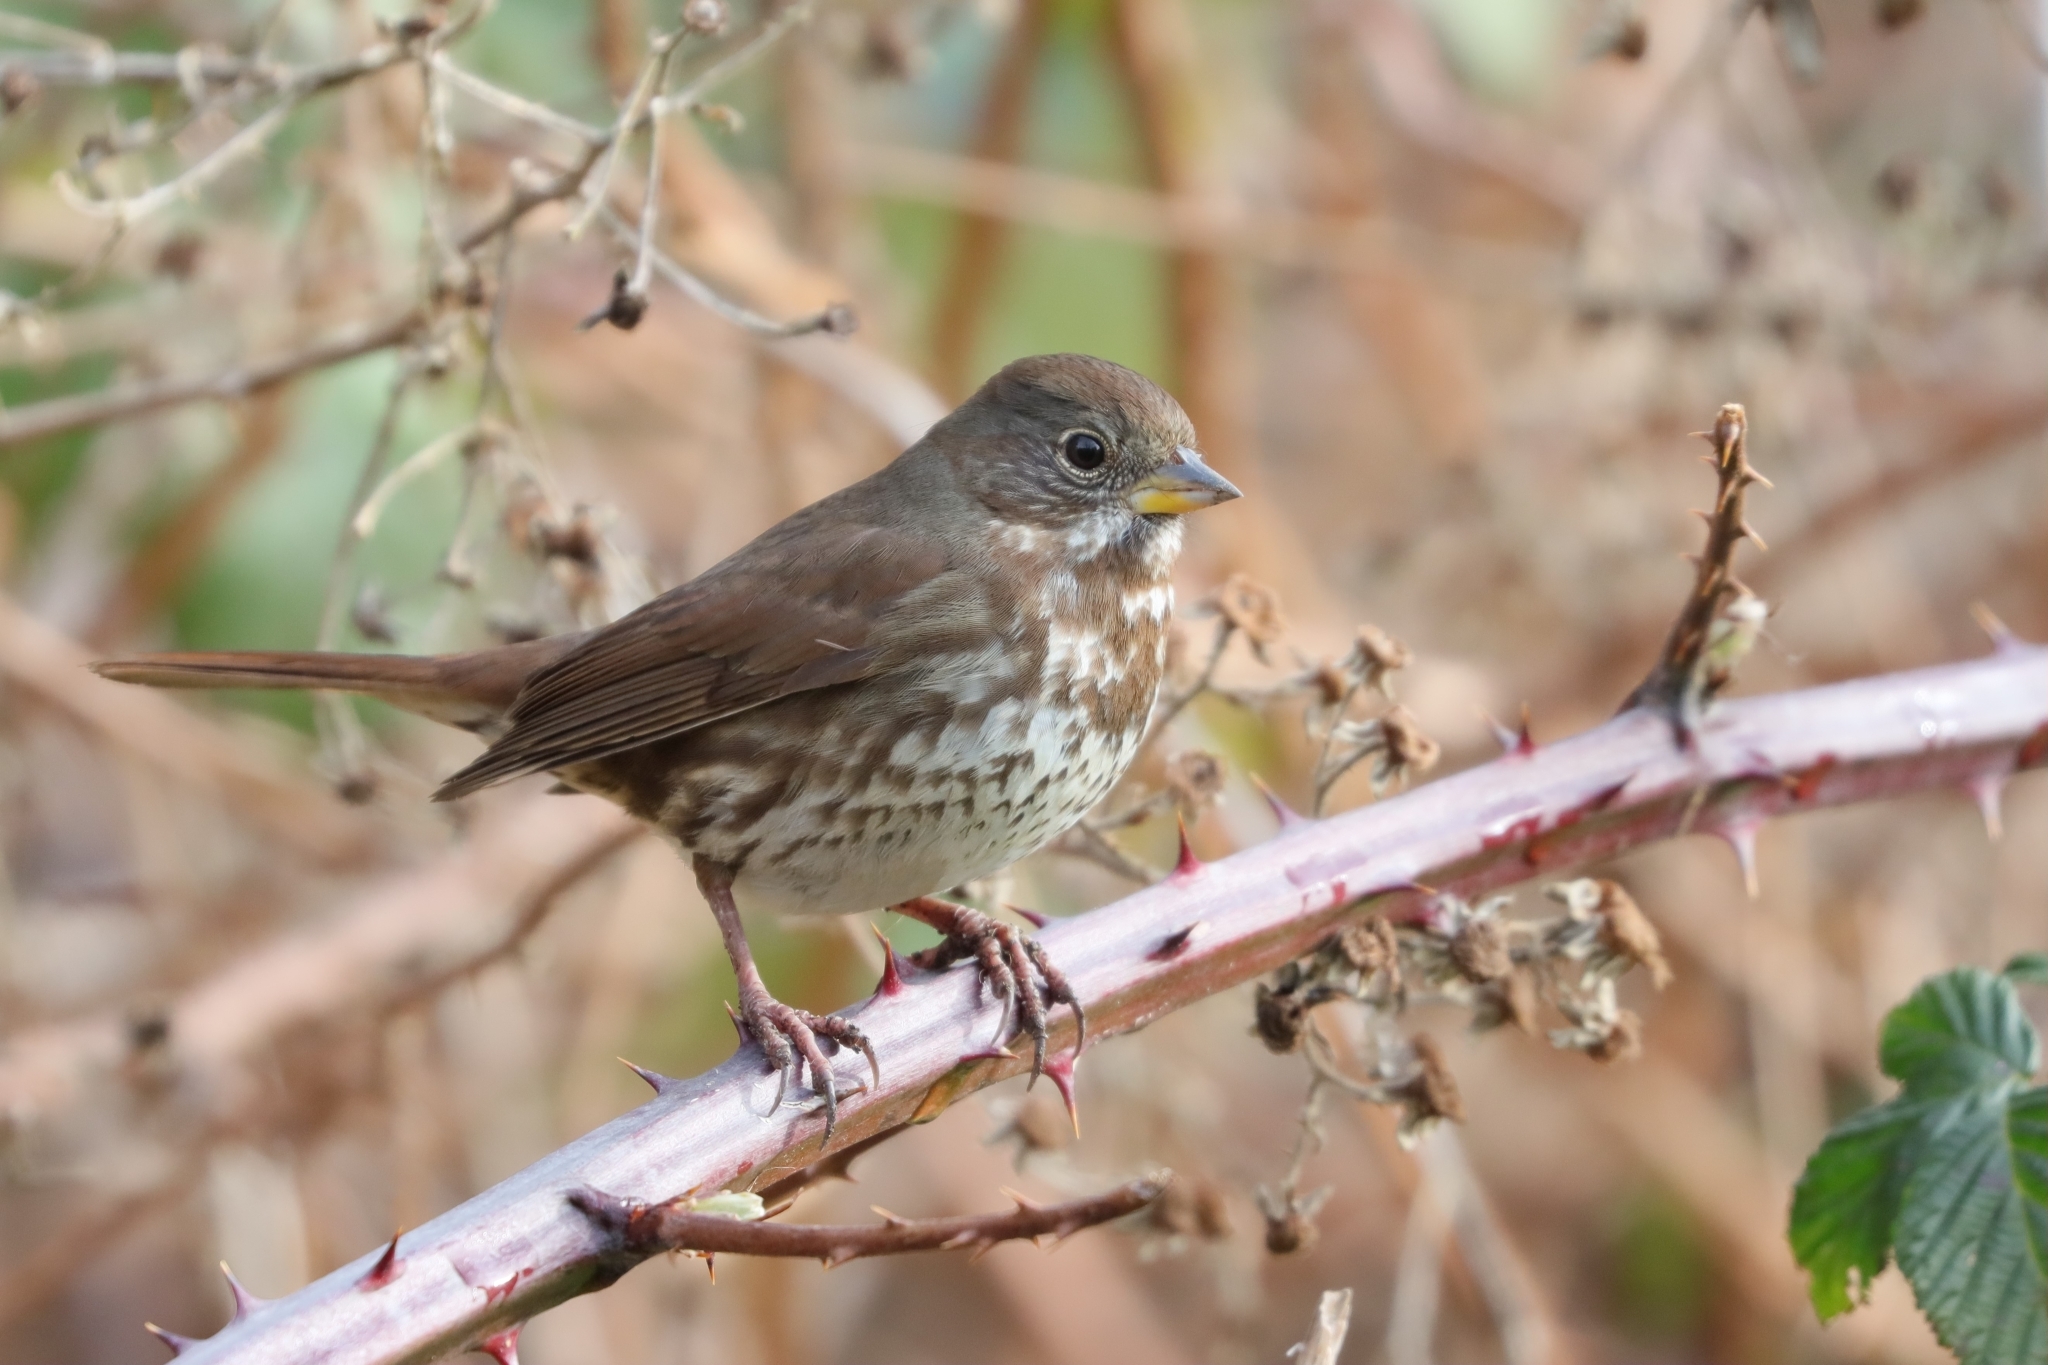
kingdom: Animalia
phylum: Chordata
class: Aves
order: Passeriformes
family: Passerellidae
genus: Passerella
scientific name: Passerella iliaca
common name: Fox sparrow
